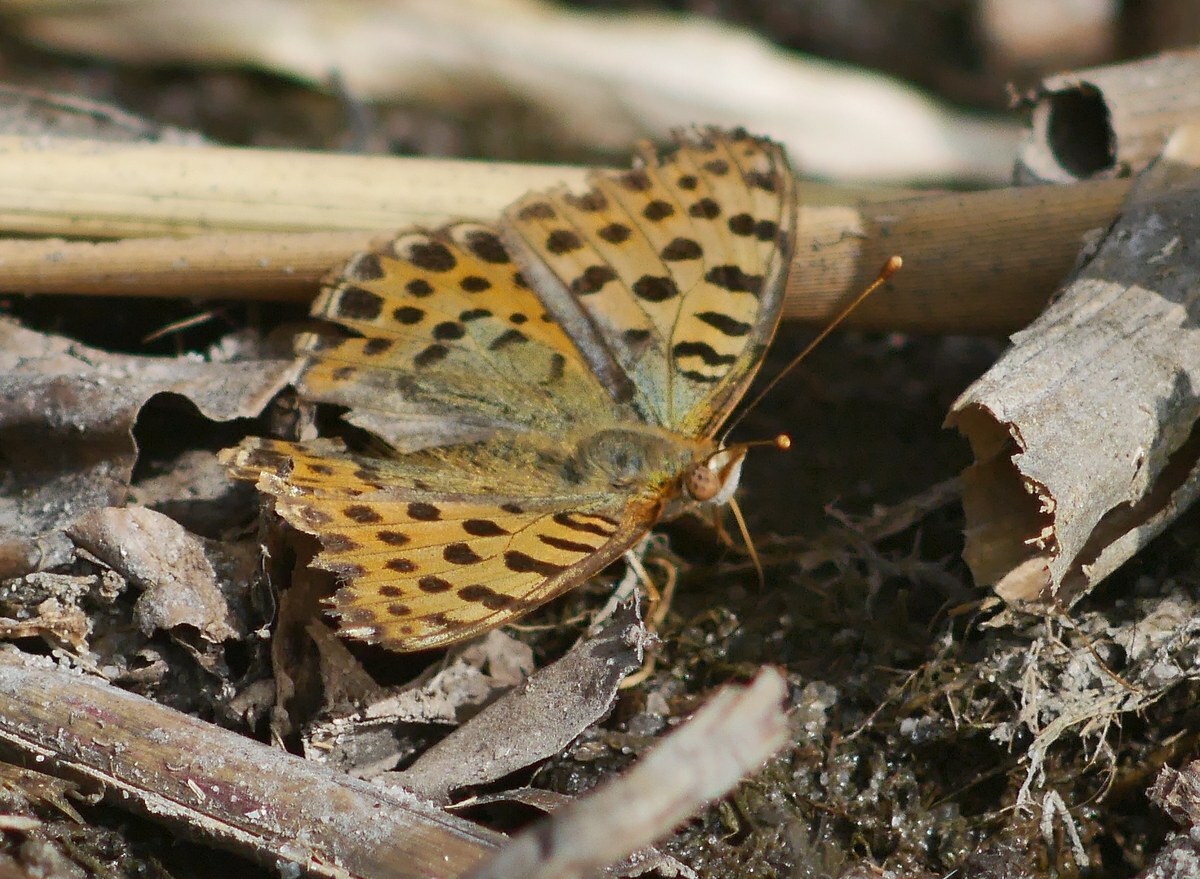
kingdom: Animalia
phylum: Arthropoda
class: Insecta
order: Lepidoptera
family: Nymphalidae
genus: Issoria
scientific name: Issoria lathonia
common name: Queen of spain fritillary
